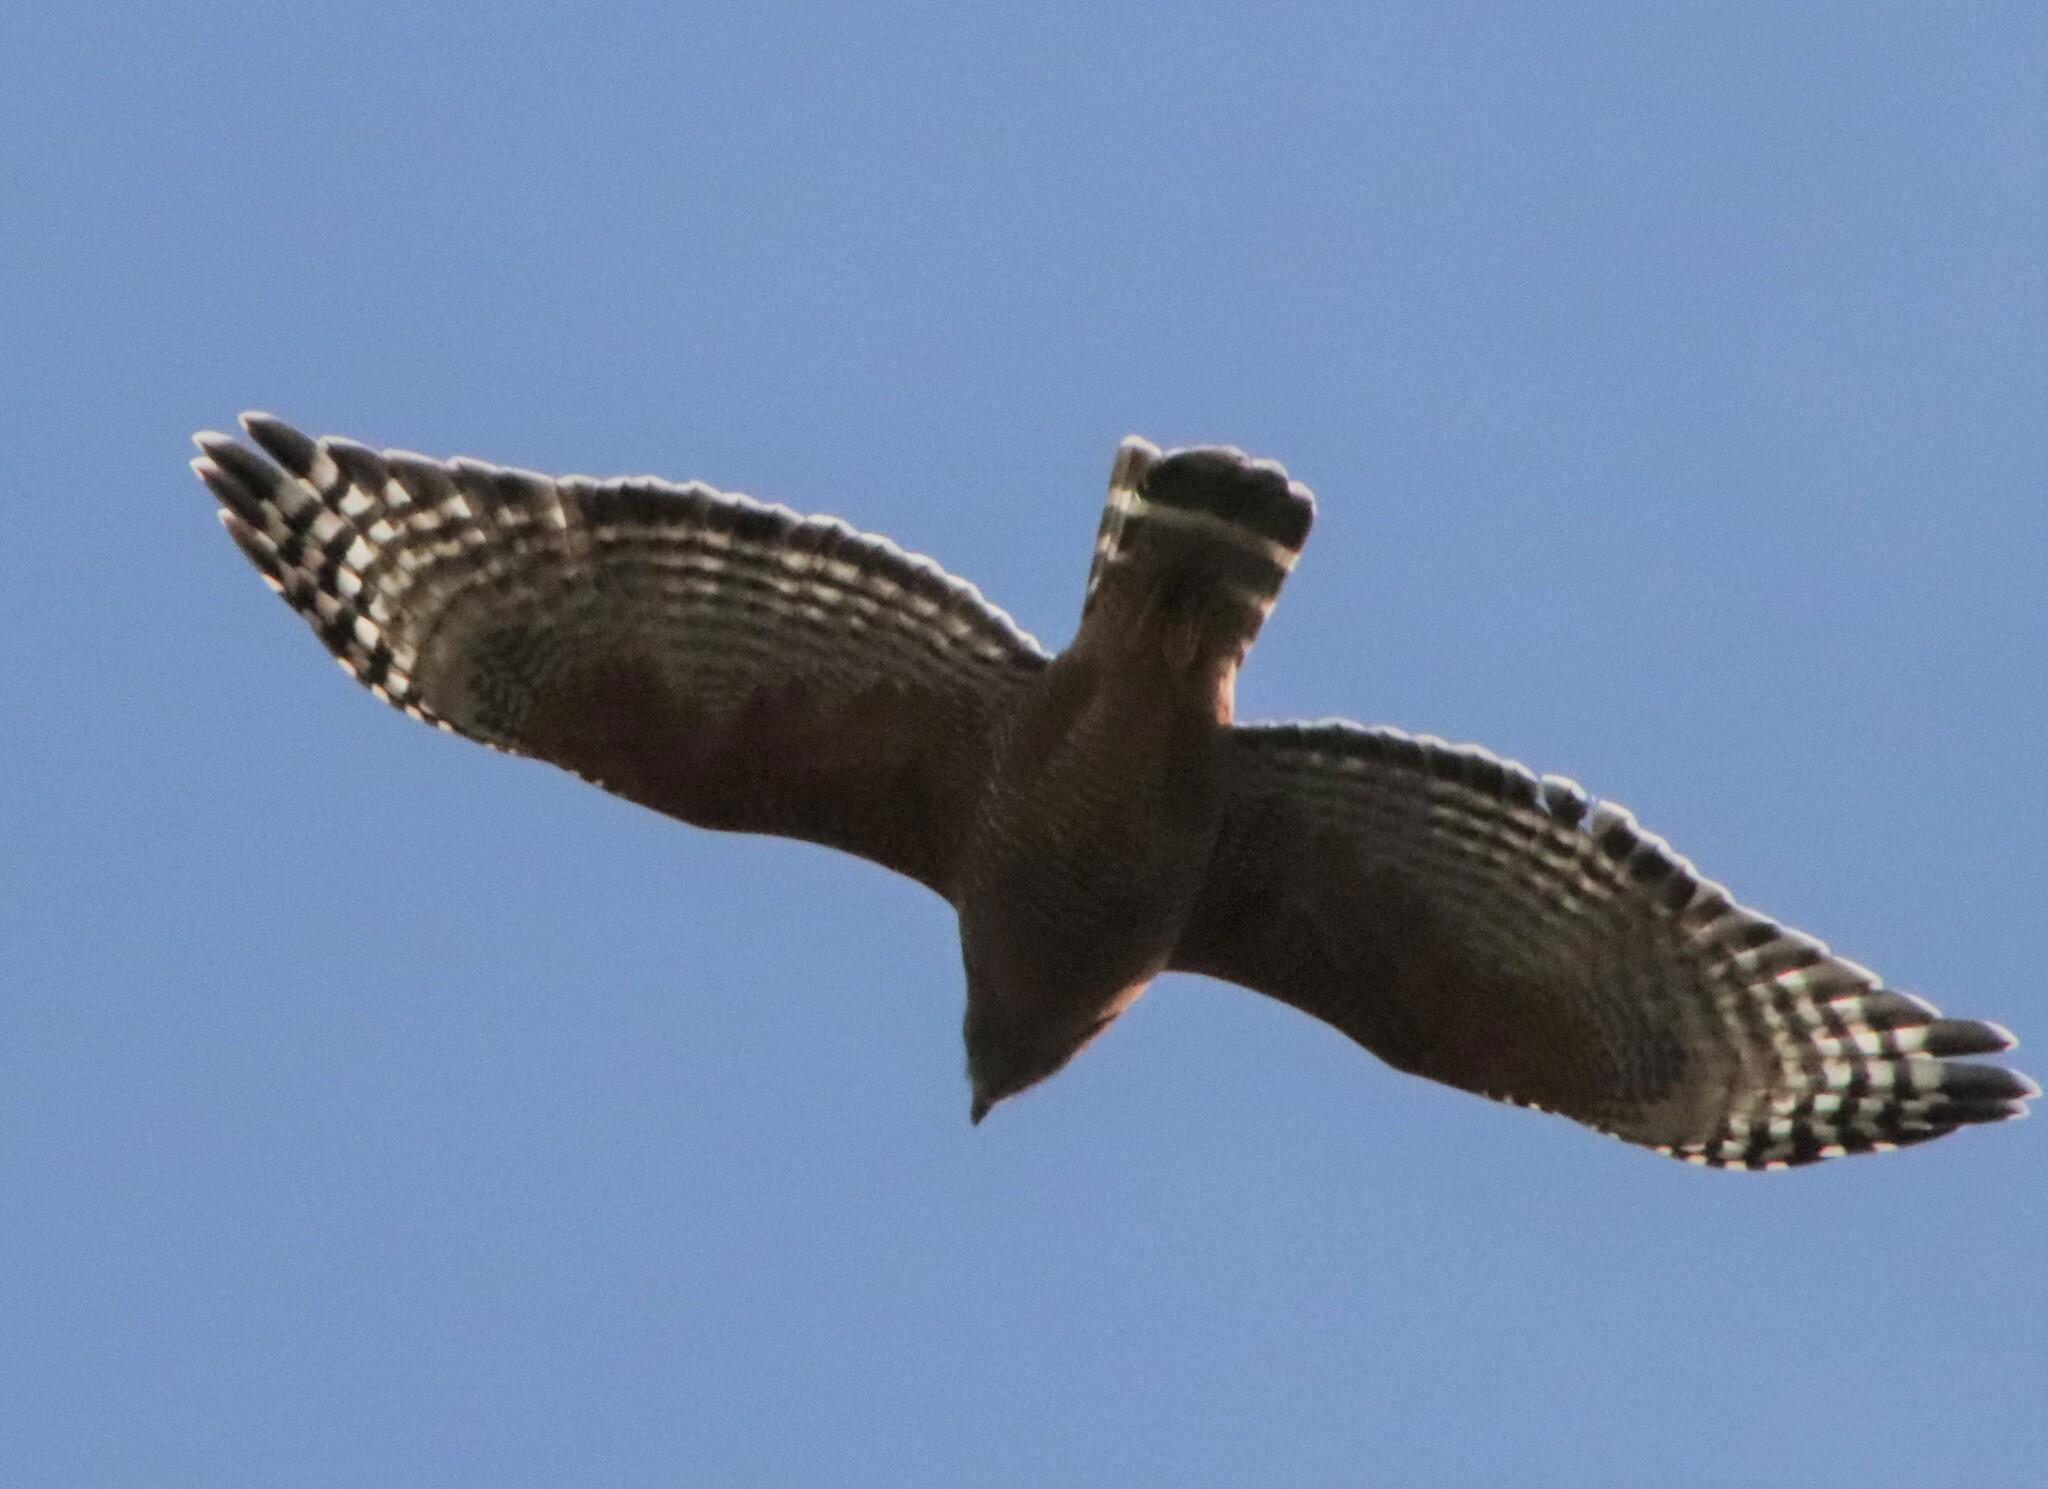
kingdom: Animalia
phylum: Chordata
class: Aves
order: Accipitriformes
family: Accipitridae
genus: Buteo
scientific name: Buteo lineatus
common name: Red-shouldered hawk
